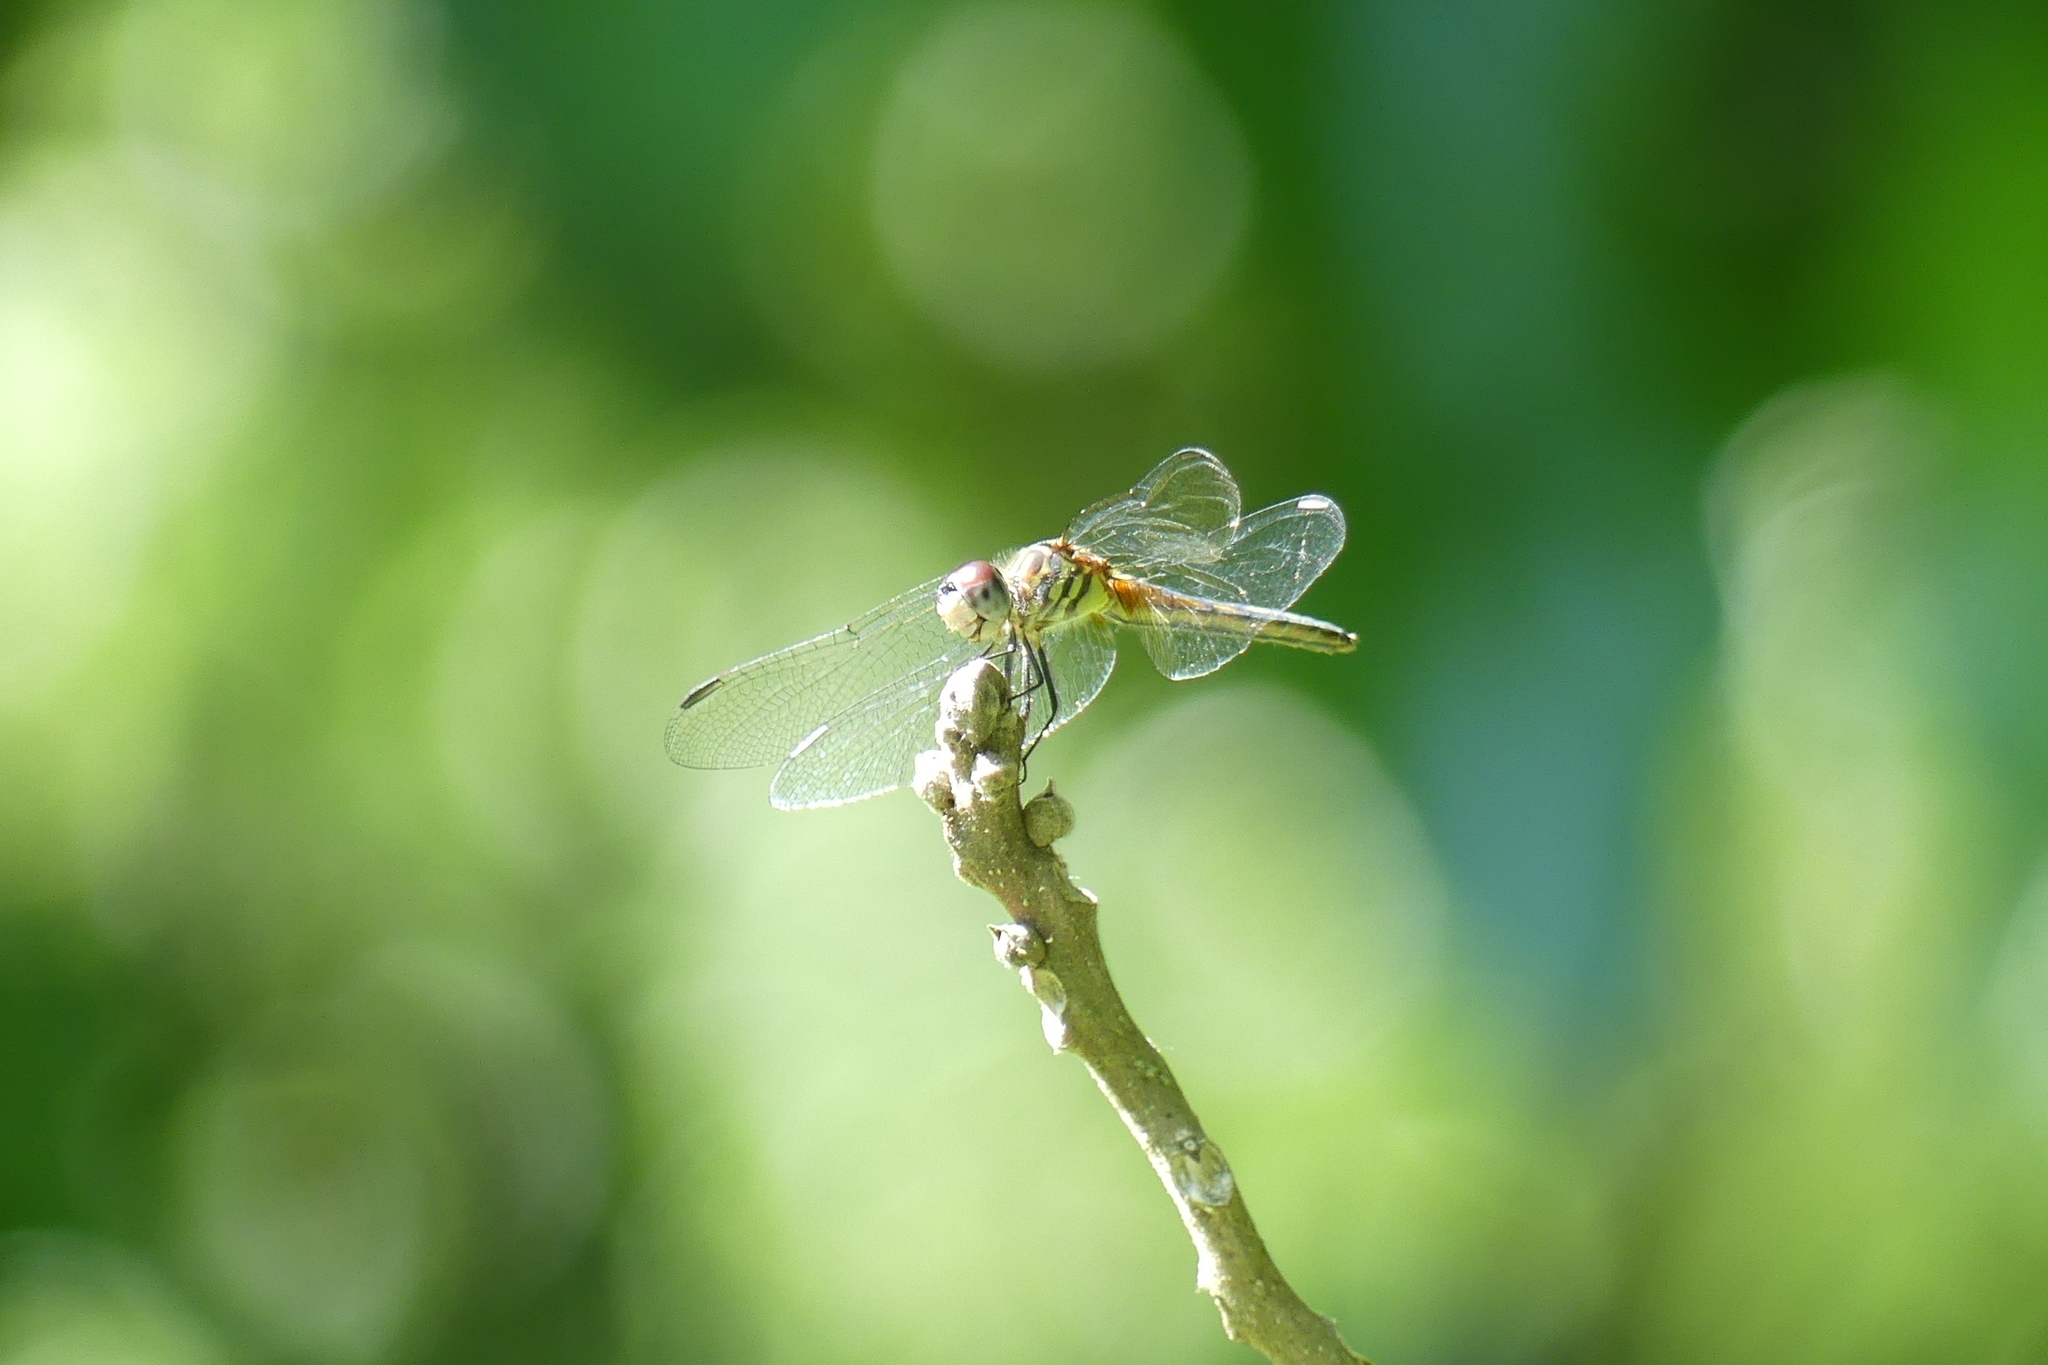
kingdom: Animalia
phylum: Arthropoda
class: Insecta
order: Odonata
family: Libellulidae
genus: Pachydiplax
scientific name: Pachydiplax longipennis
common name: Blue dasher
